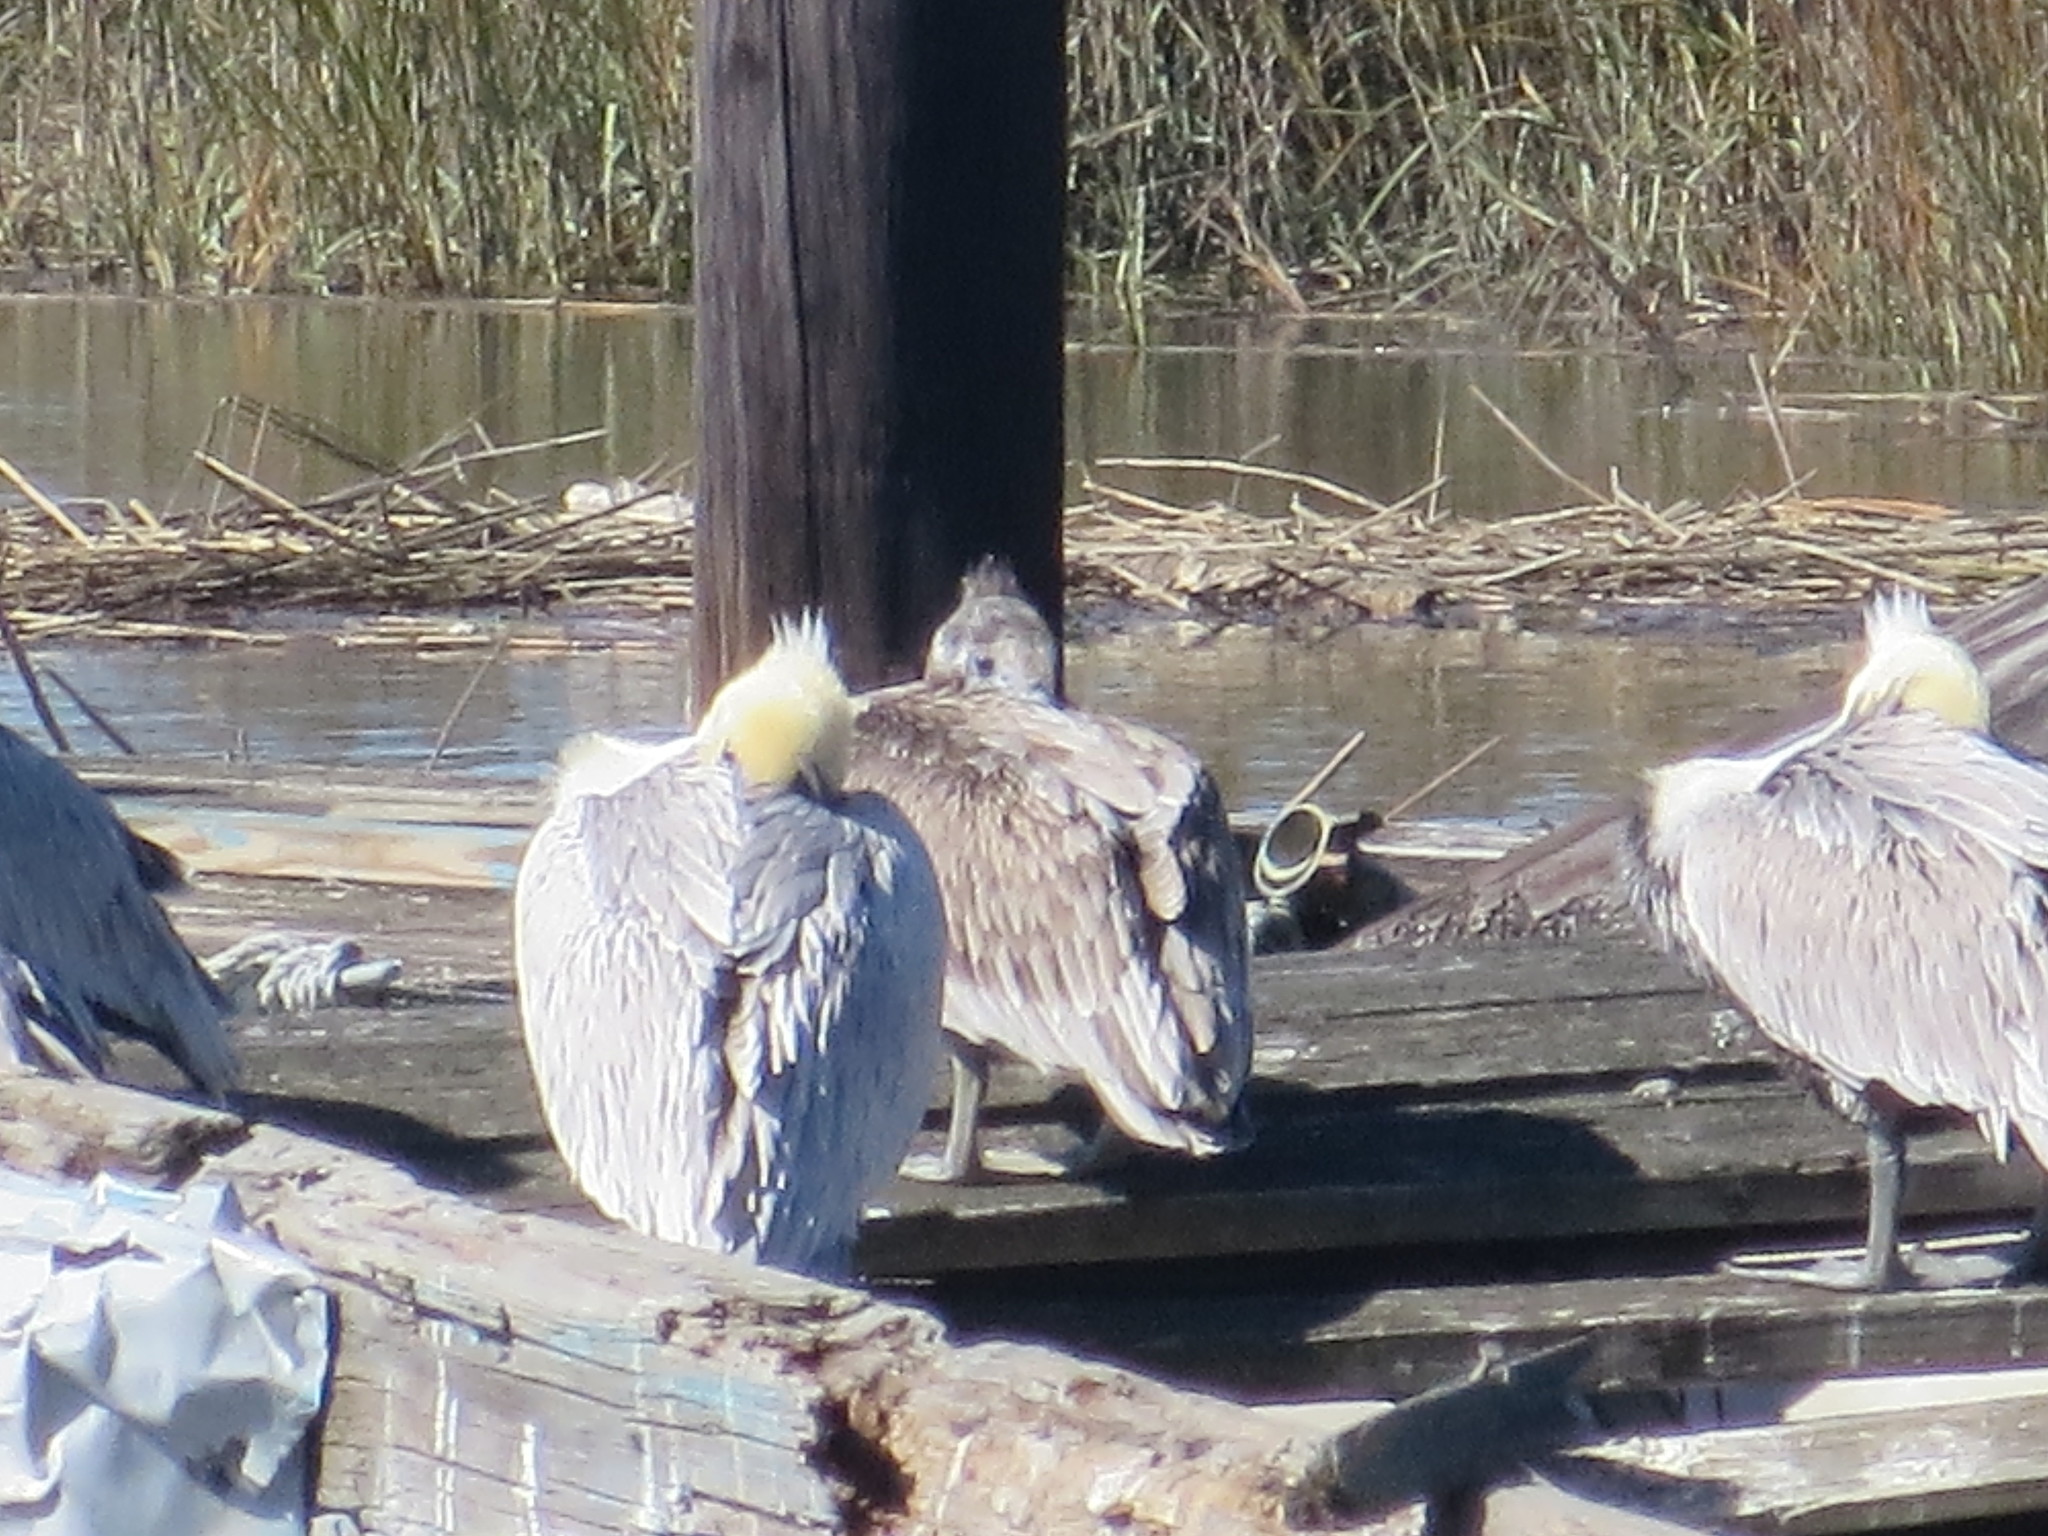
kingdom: Animalia
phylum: Chordata
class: Aves
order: Pelecaniformes
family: Pelecanidae
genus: Pelecanus
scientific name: Pelecanus occidentalis
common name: Brown pelican
